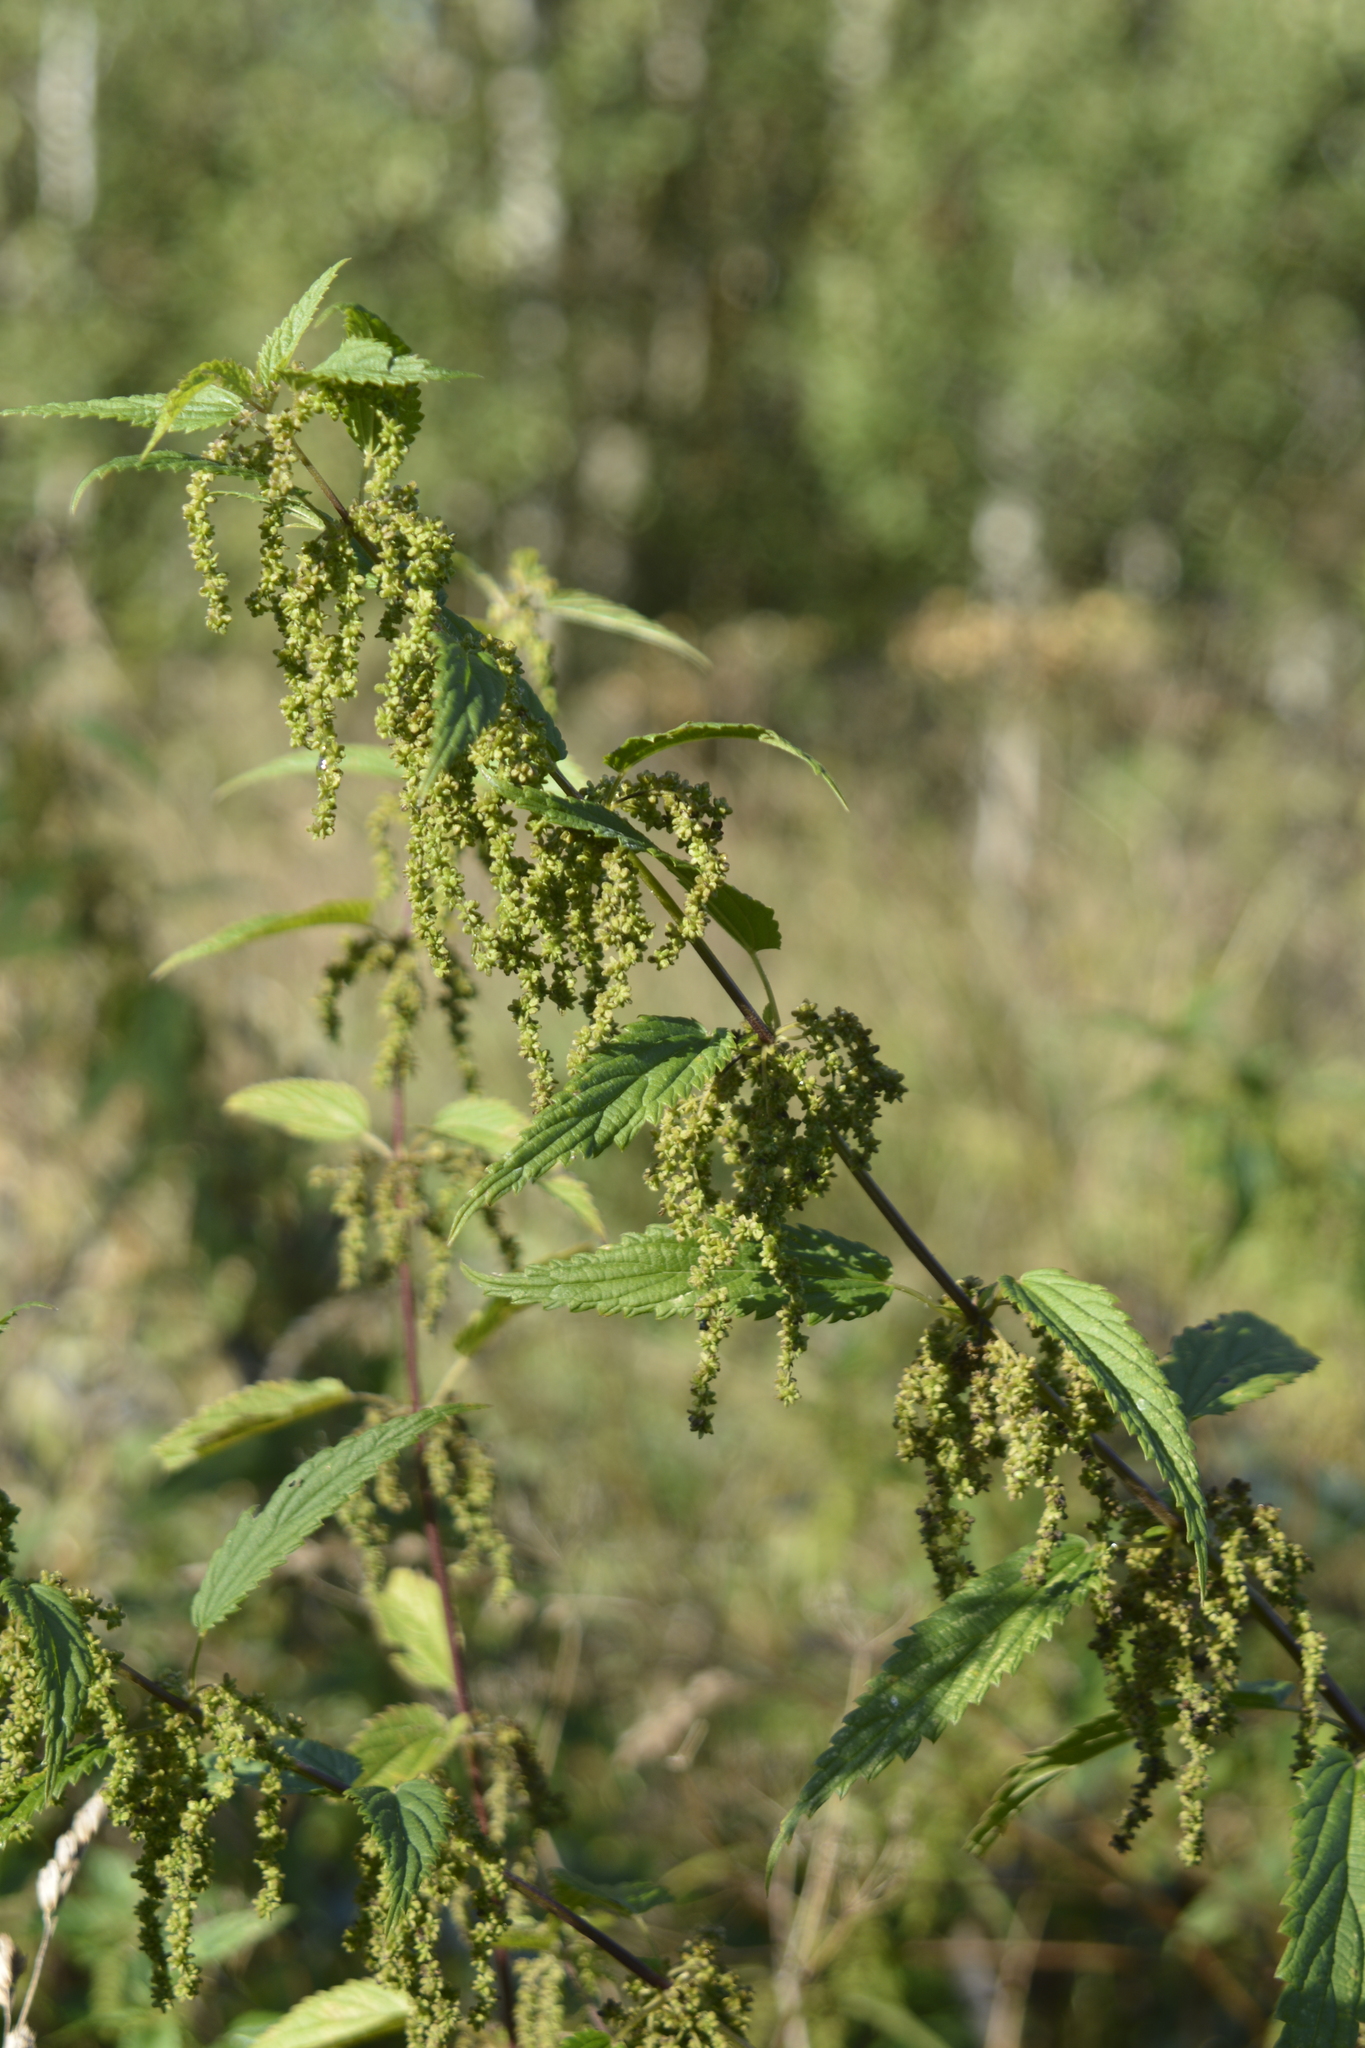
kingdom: Plantae
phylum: Tracheophyta
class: Magnoliopsida
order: Rosales
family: Urticaceae
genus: Urtica
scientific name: Urtica dioica
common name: Common nettle
